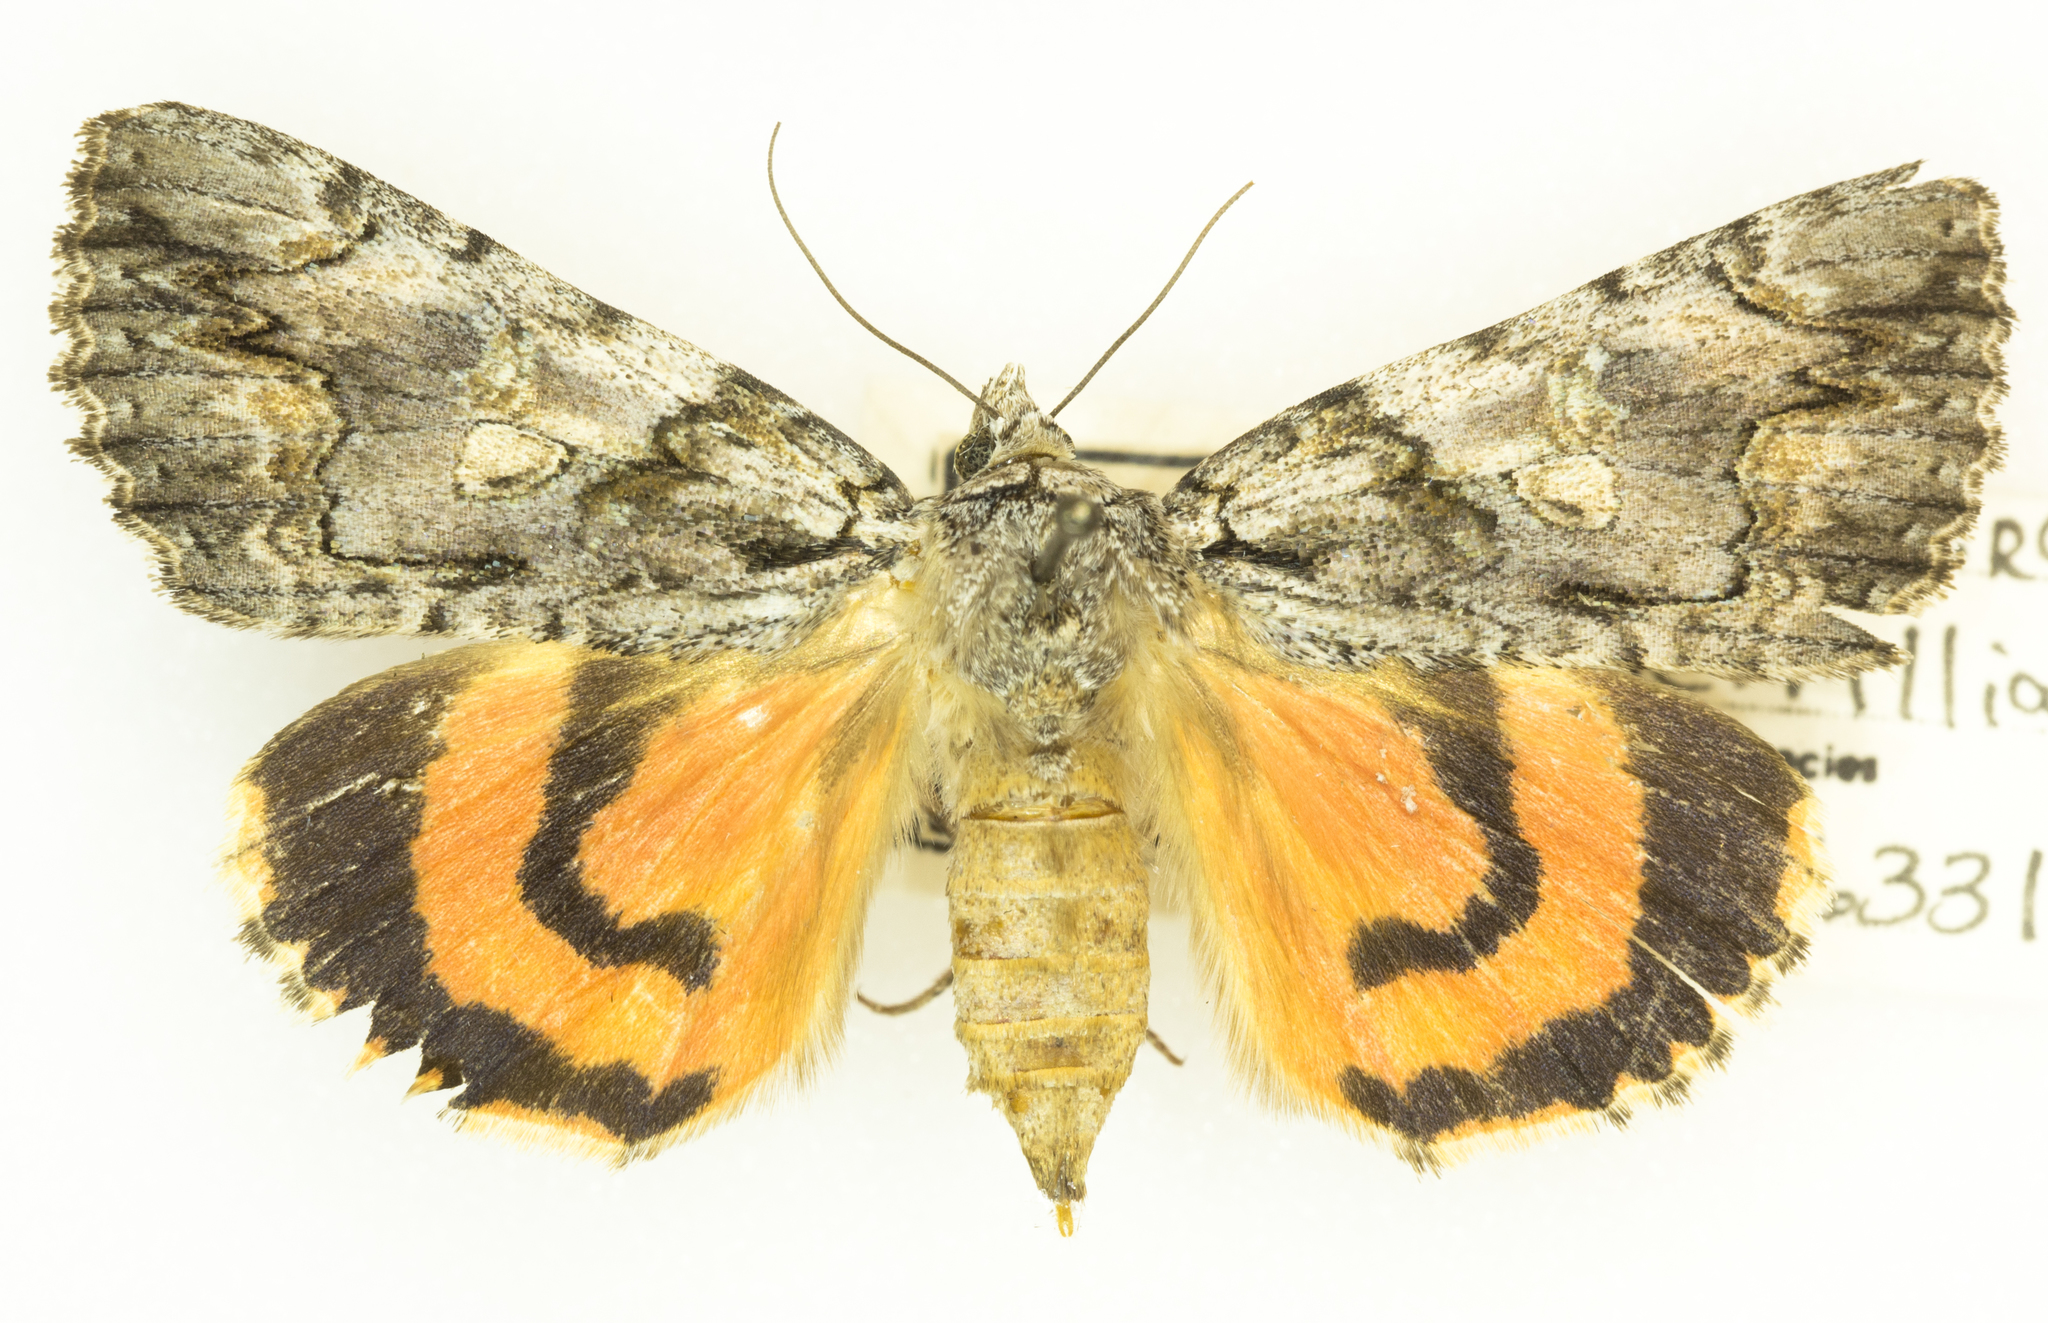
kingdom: Animalia
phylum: Arthropoda
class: Insecta
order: Lepidoptera
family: Erebidae
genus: Catocala
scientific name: Catocala verrilliana
